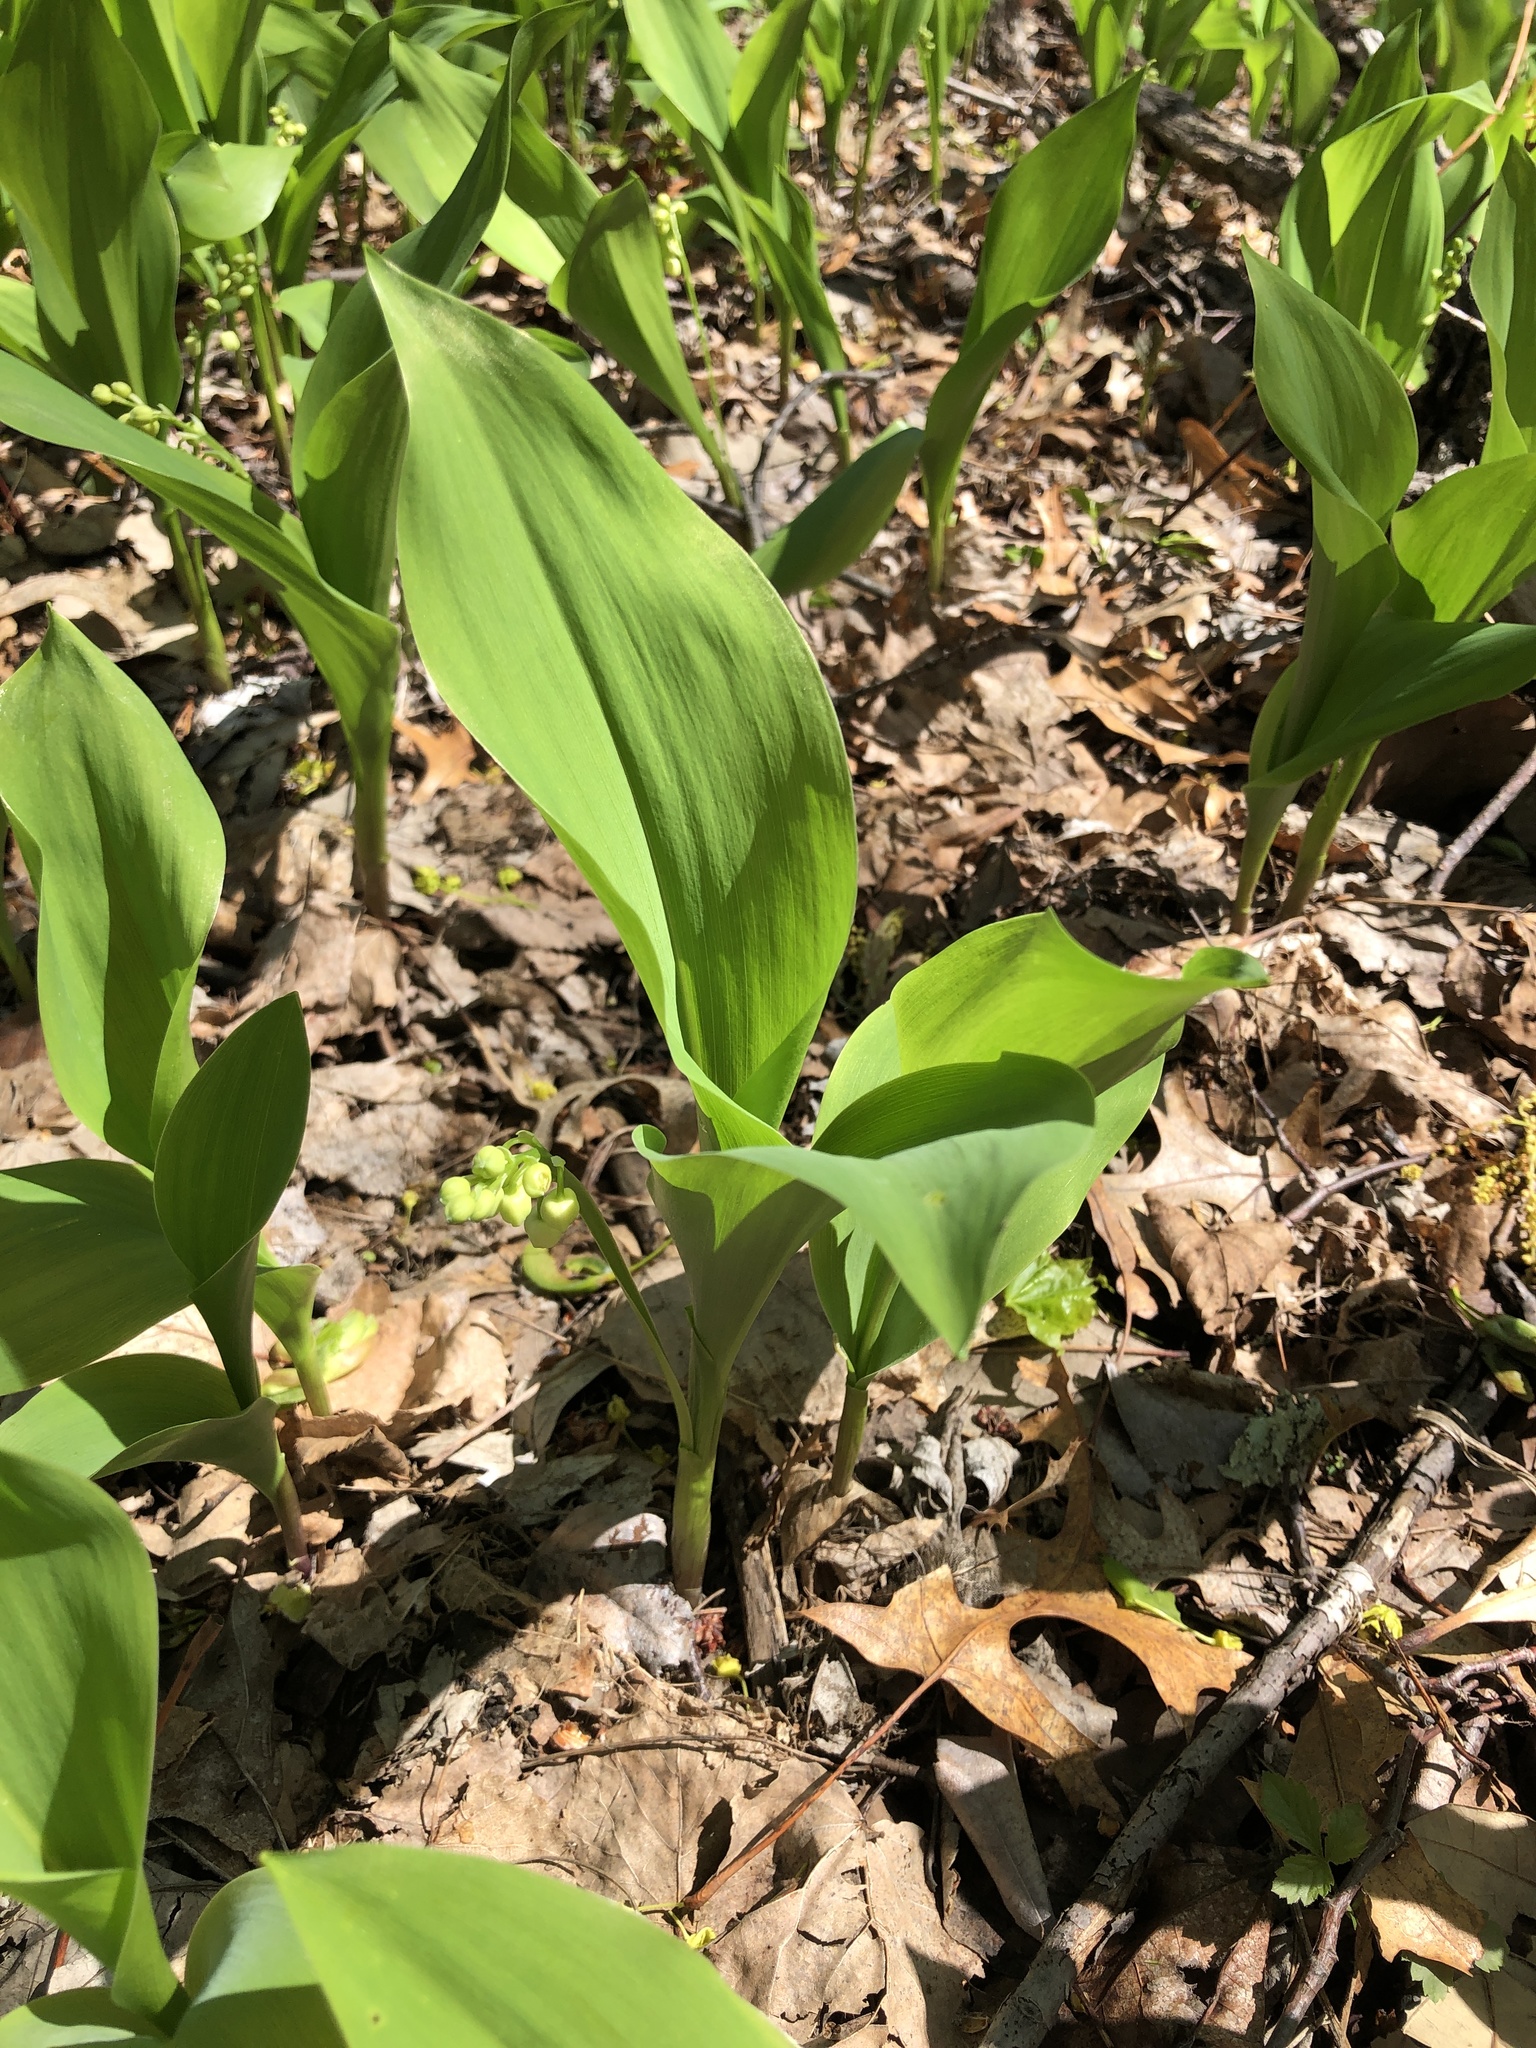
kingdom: Plantae
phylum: Tracheophyta
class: Liliopsida
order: Asparagales
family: Asparagaceae
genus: Convallaria
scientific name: Convallaria majalis
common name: Lily-of-the-valley
